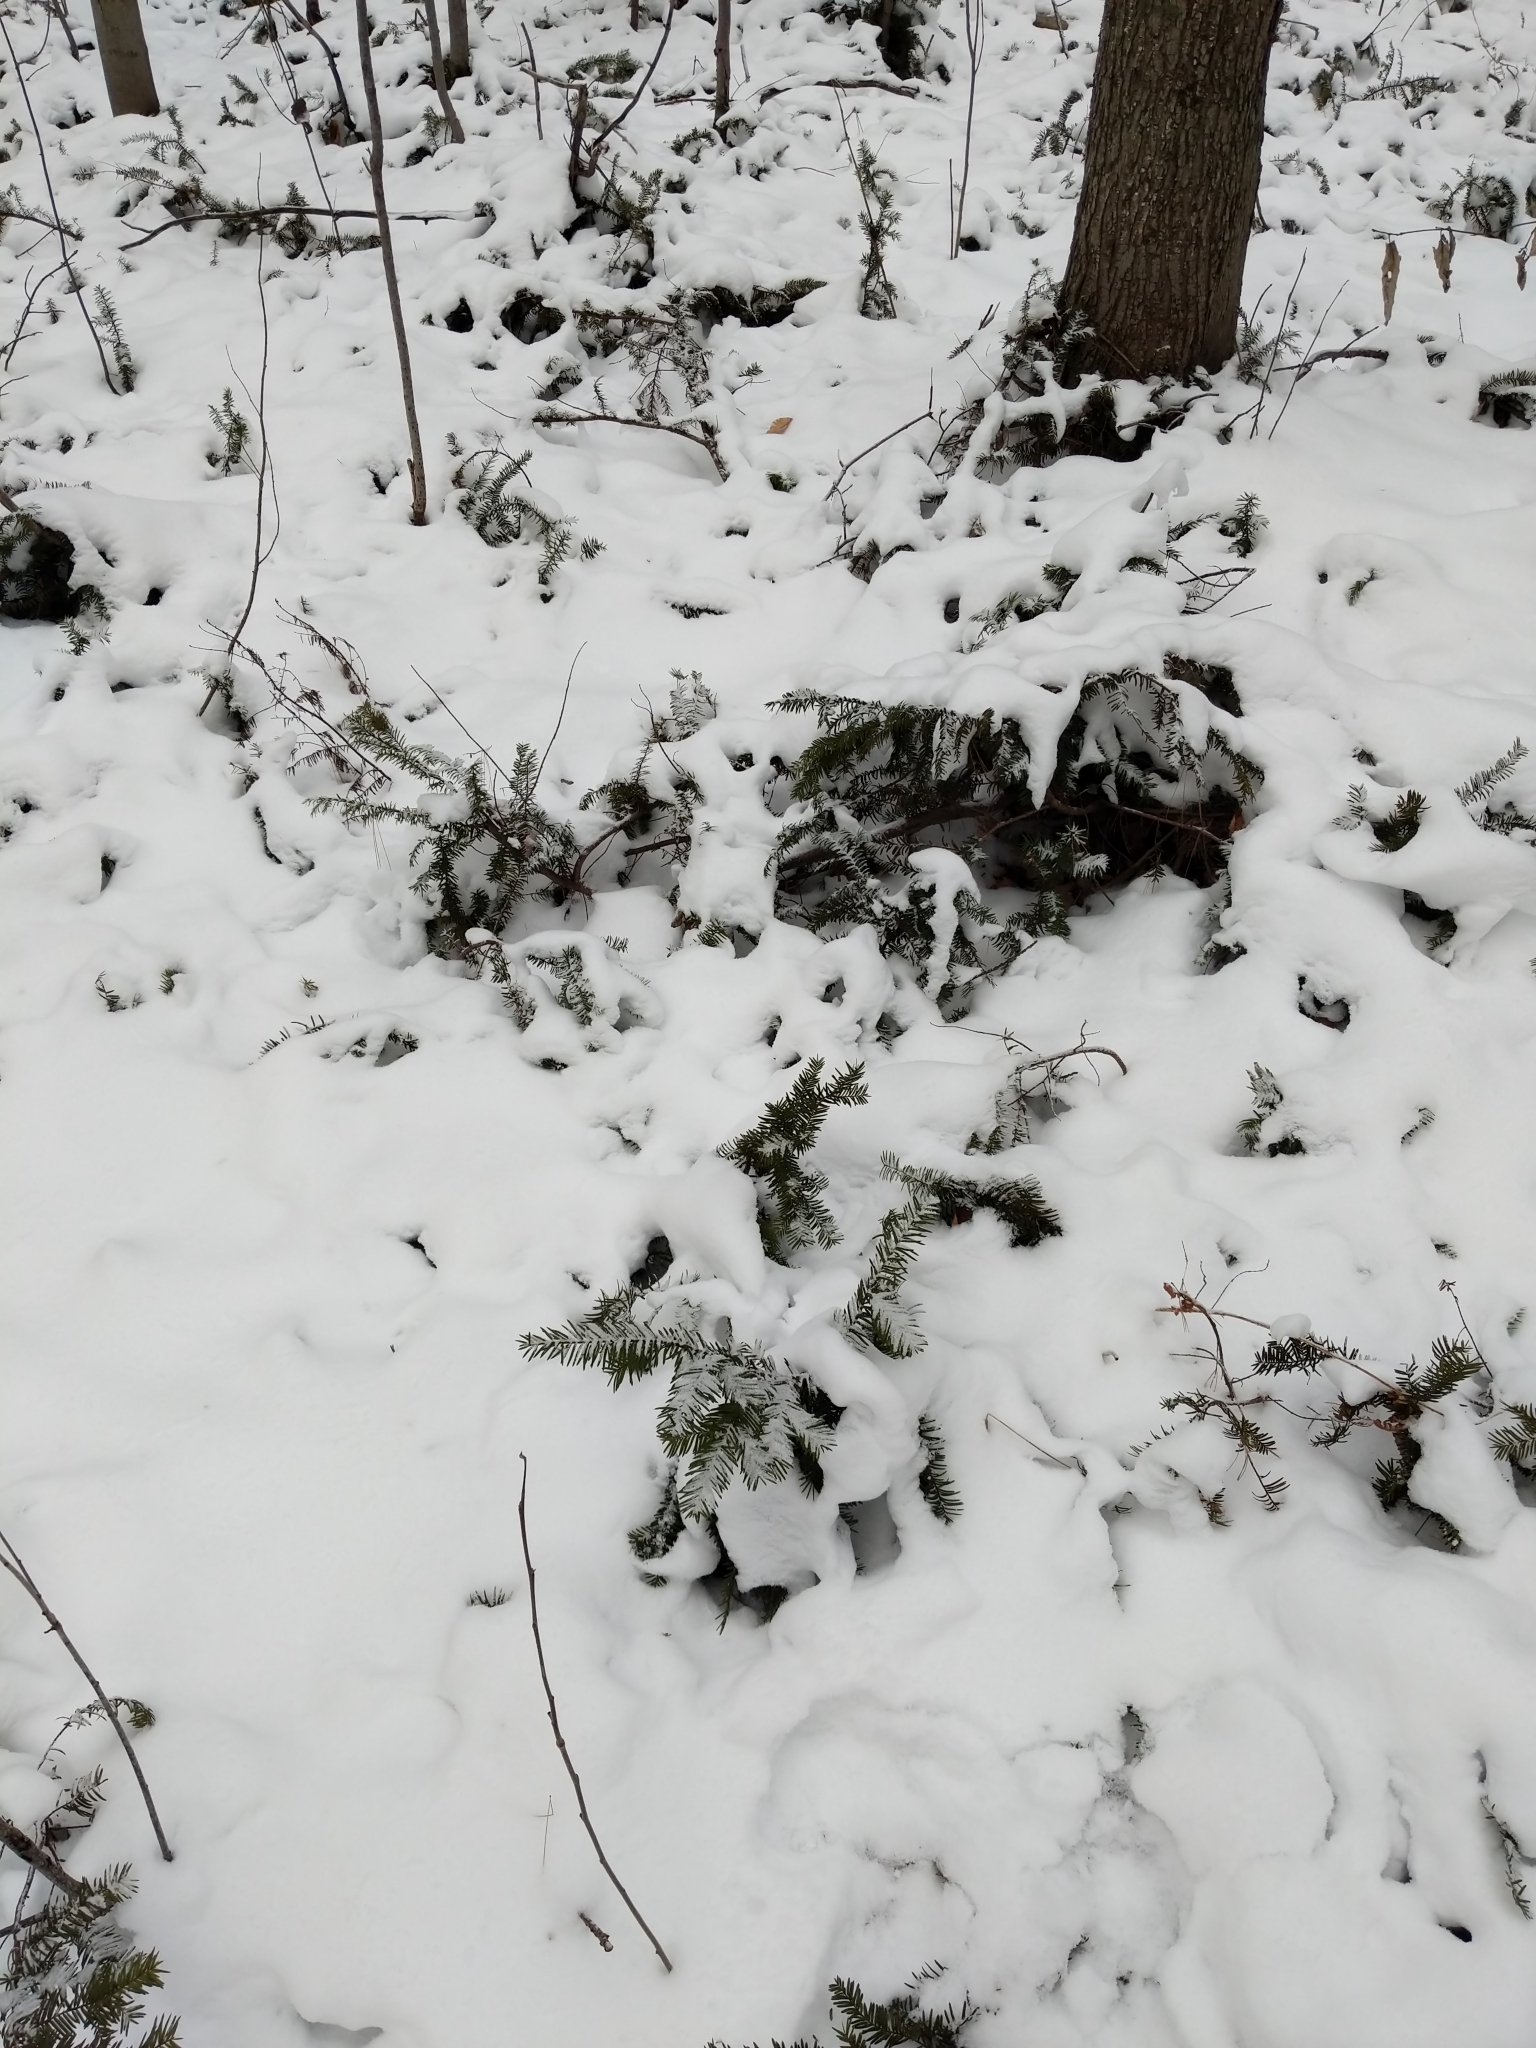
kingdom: Plantae
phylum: Tracheophyta
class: Pinopsida
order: Pinales
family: Taxaceae
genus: Taxus
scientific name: Taxus canadensis
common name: American yew
